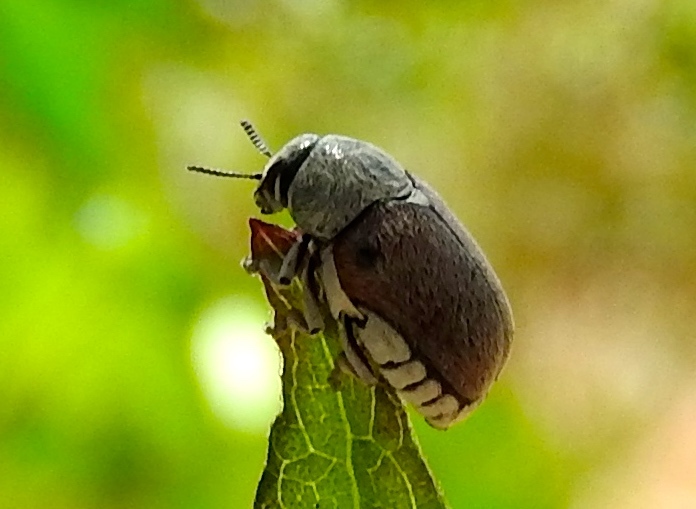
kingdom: Animalia
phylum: Arthropoda
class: Insecta
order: Coleoptera
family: Chrysomelidae
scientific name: Chrysomelidae
